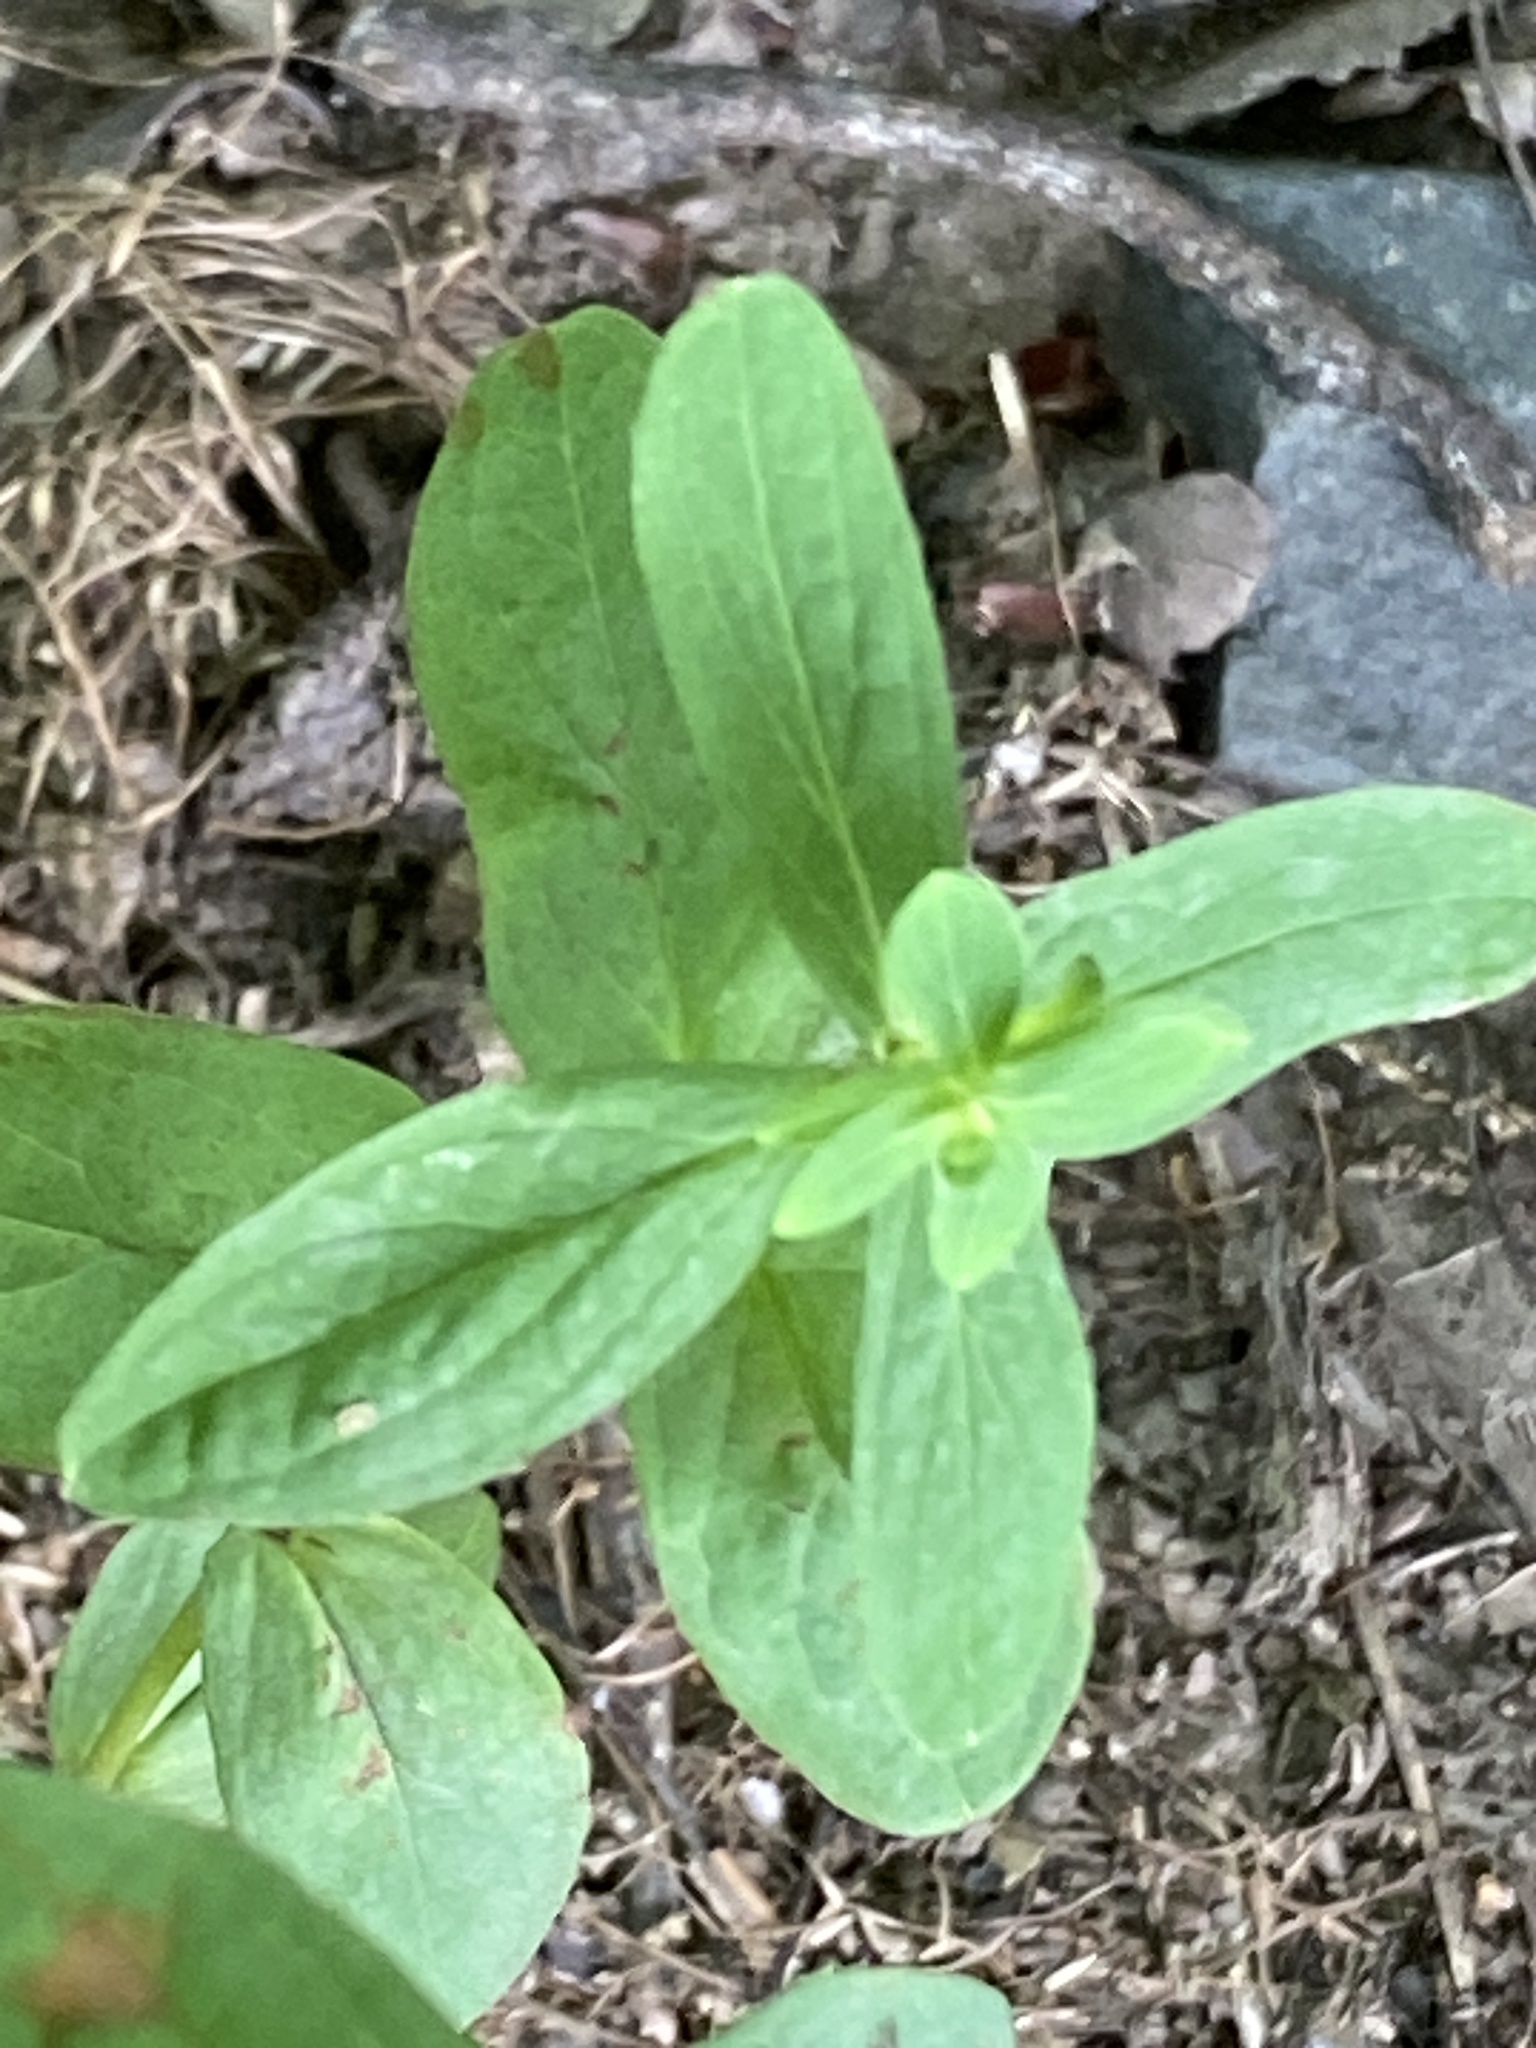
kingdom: Plantae
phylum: Tracheophyta
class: Magnoliopsida
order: Malpighiales
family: Hypericaceae
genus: Hypericum
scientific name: Hypericum punctatum
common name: Spotted st. john's-wort
